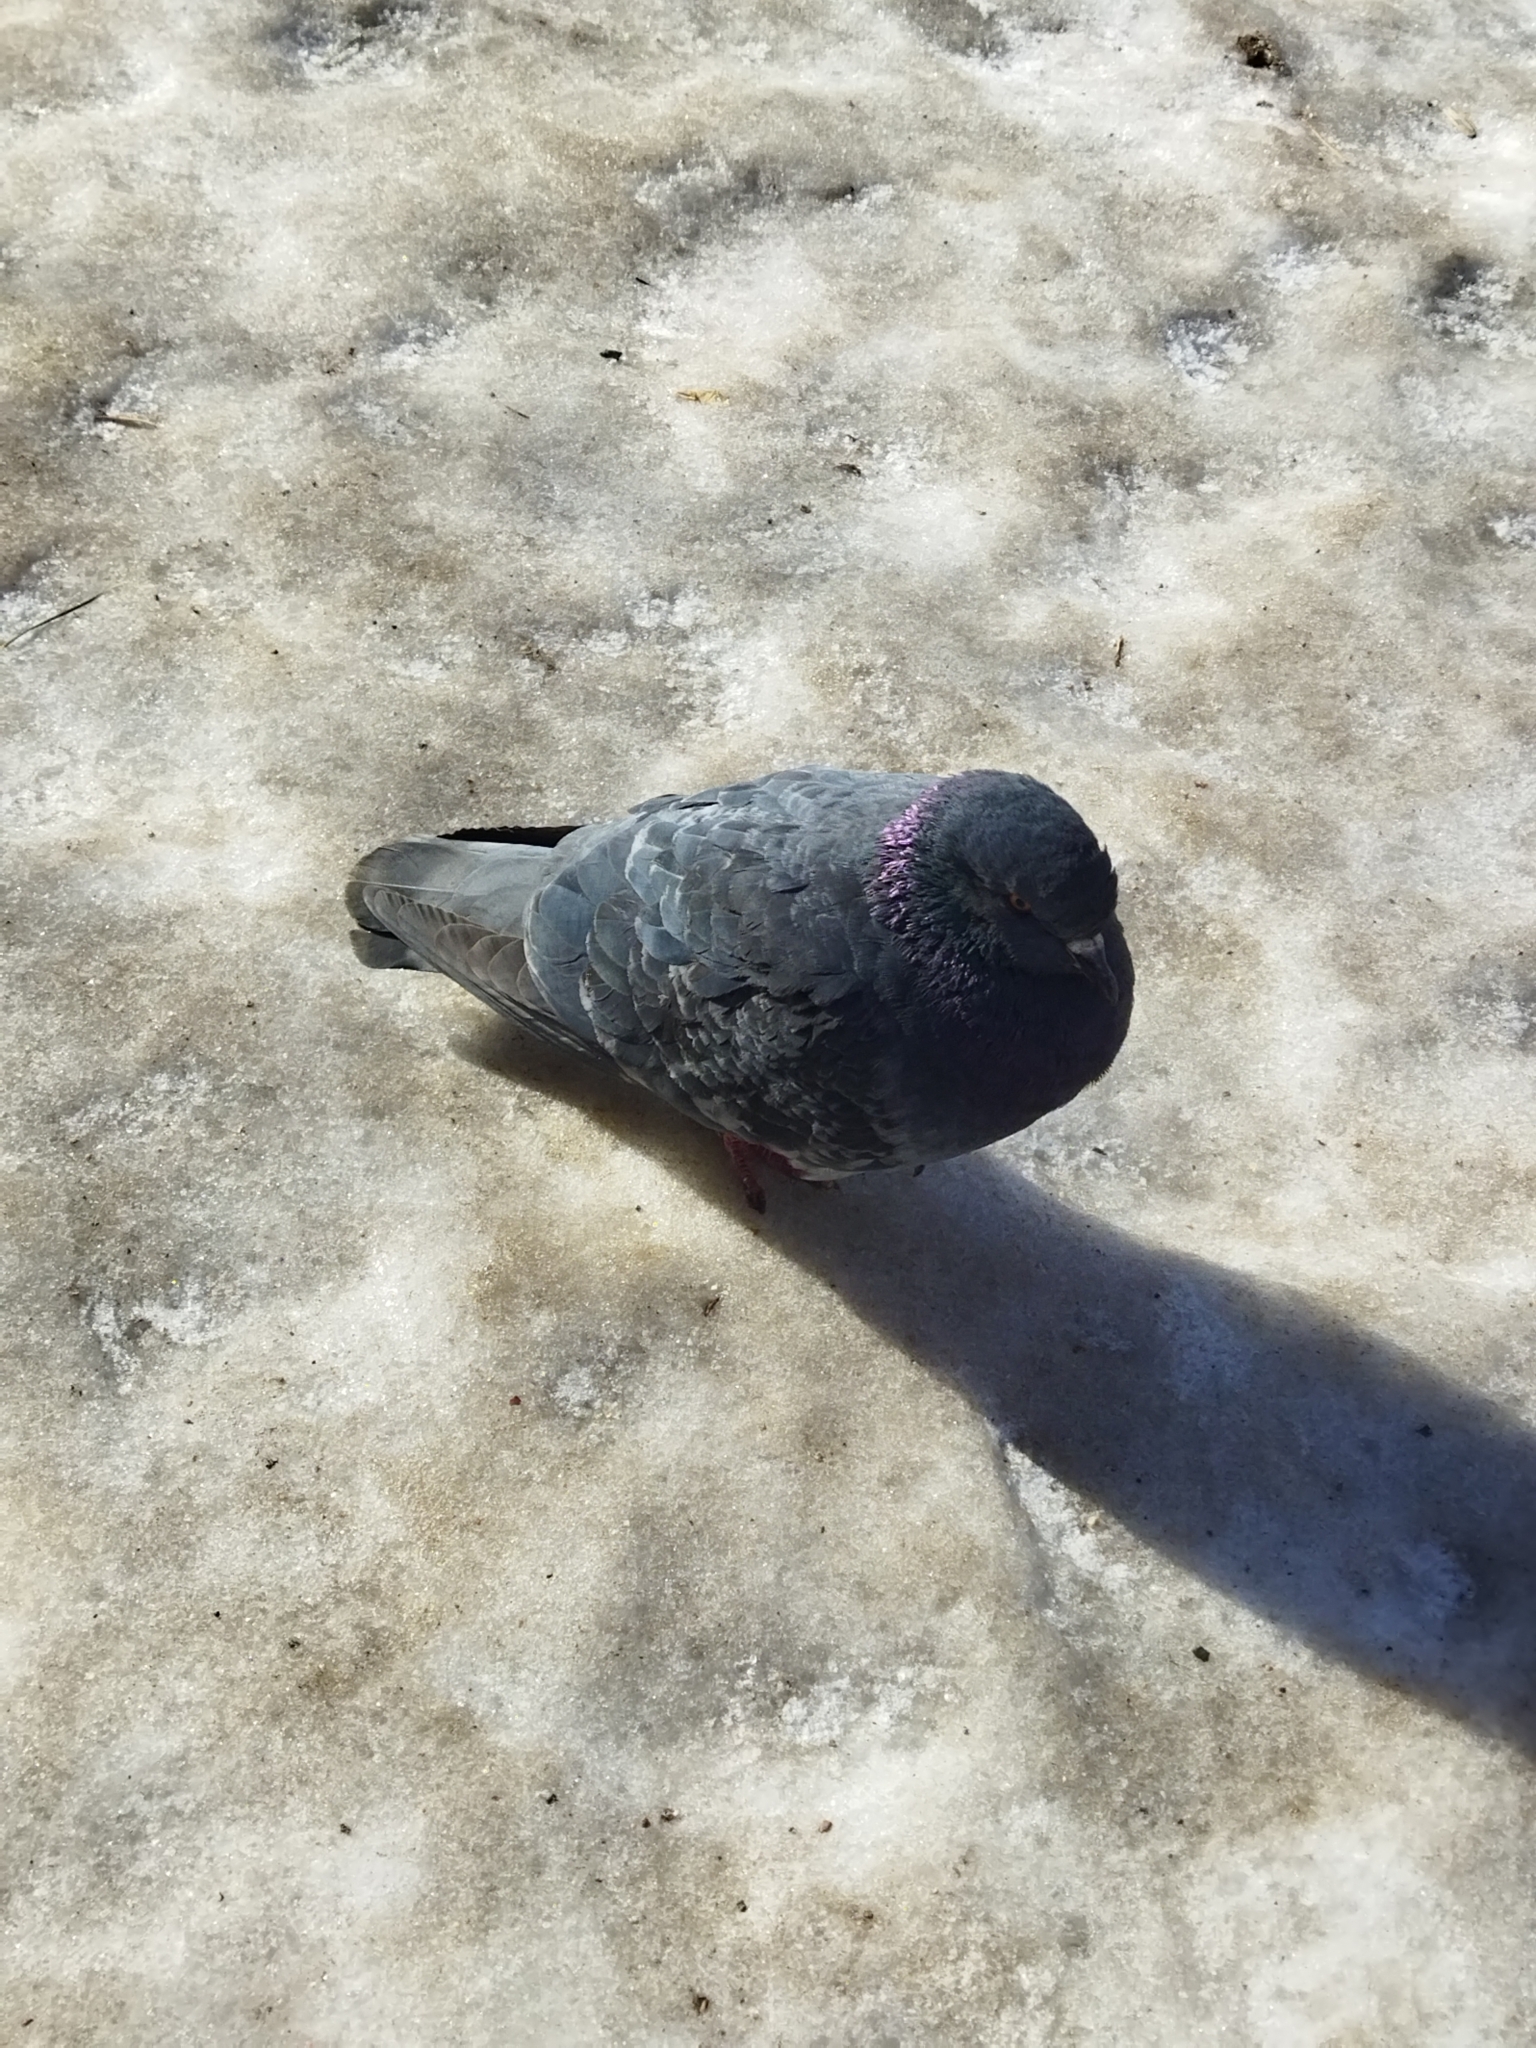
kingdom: Animalia
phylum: Chordata
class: Aves
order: Columbiformes
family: Columbidae
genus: Columba
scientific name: Columba livia
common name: Rock pigeon
